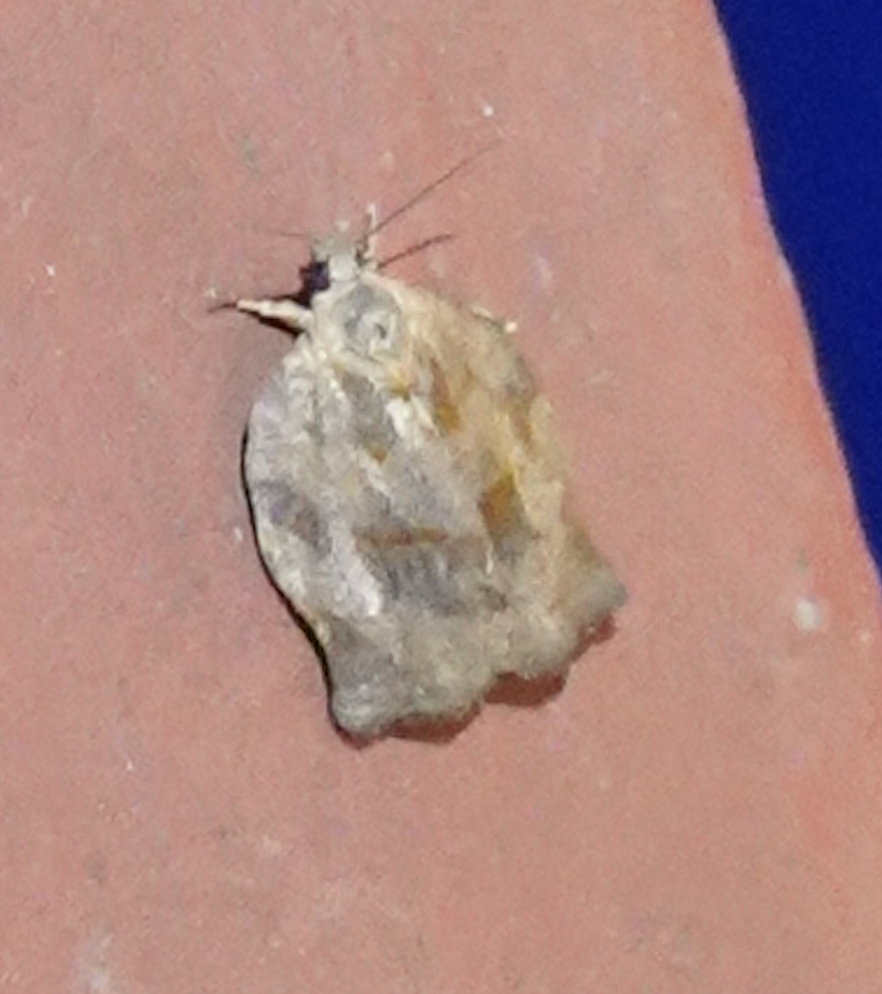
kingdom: Animalia
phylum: Arthropoda
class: Insecta
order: Lepidoptera
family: Tortricidae
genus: Archips
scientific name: Archips purpurana
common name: Omnivorous leafroller
